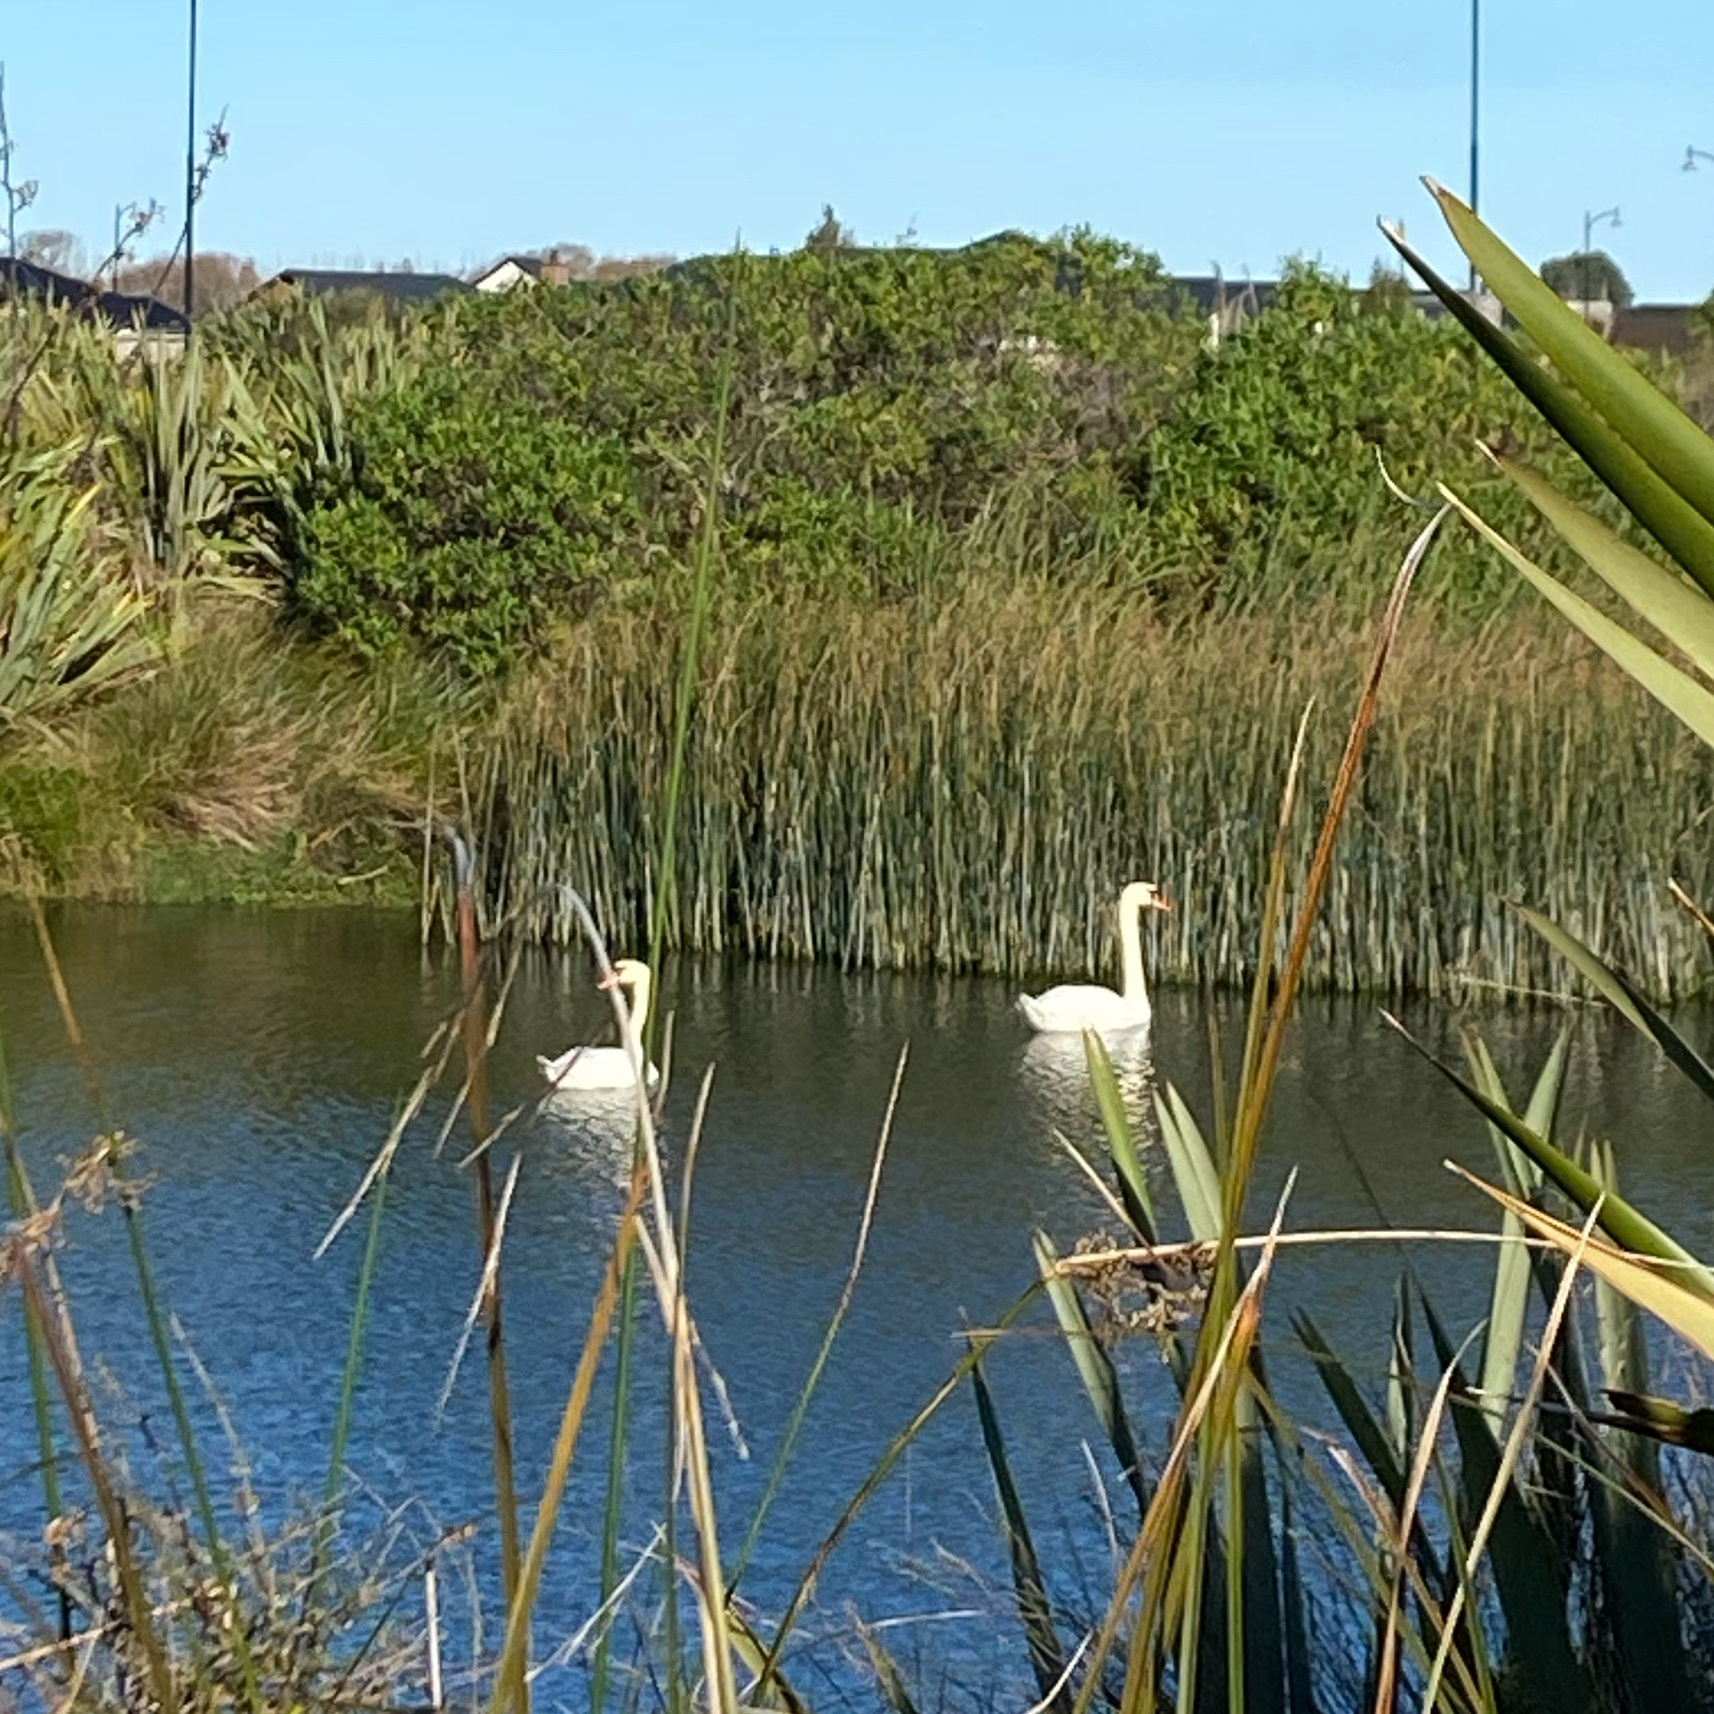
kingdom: Animalia
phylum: Chordata
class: Aves
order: Anseriformes
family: Anatidae
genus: Cygnus
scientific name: Cygnus olor
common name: Mute swan
